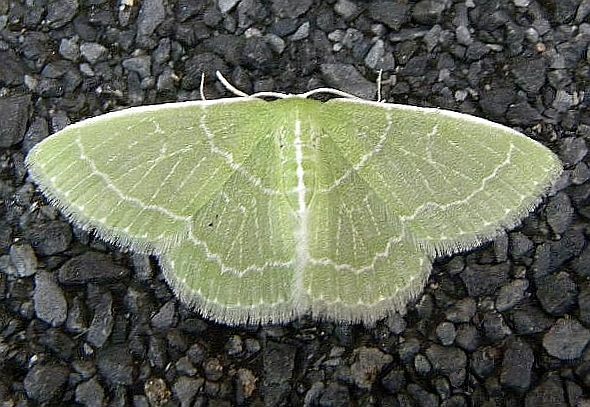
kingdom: Animalia
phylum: Arthropoda
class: Insecta
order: Lepidoptera
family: Geometridae
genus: Synchlora
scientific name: Synchlora aerata
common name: Wavy-lined emerald
